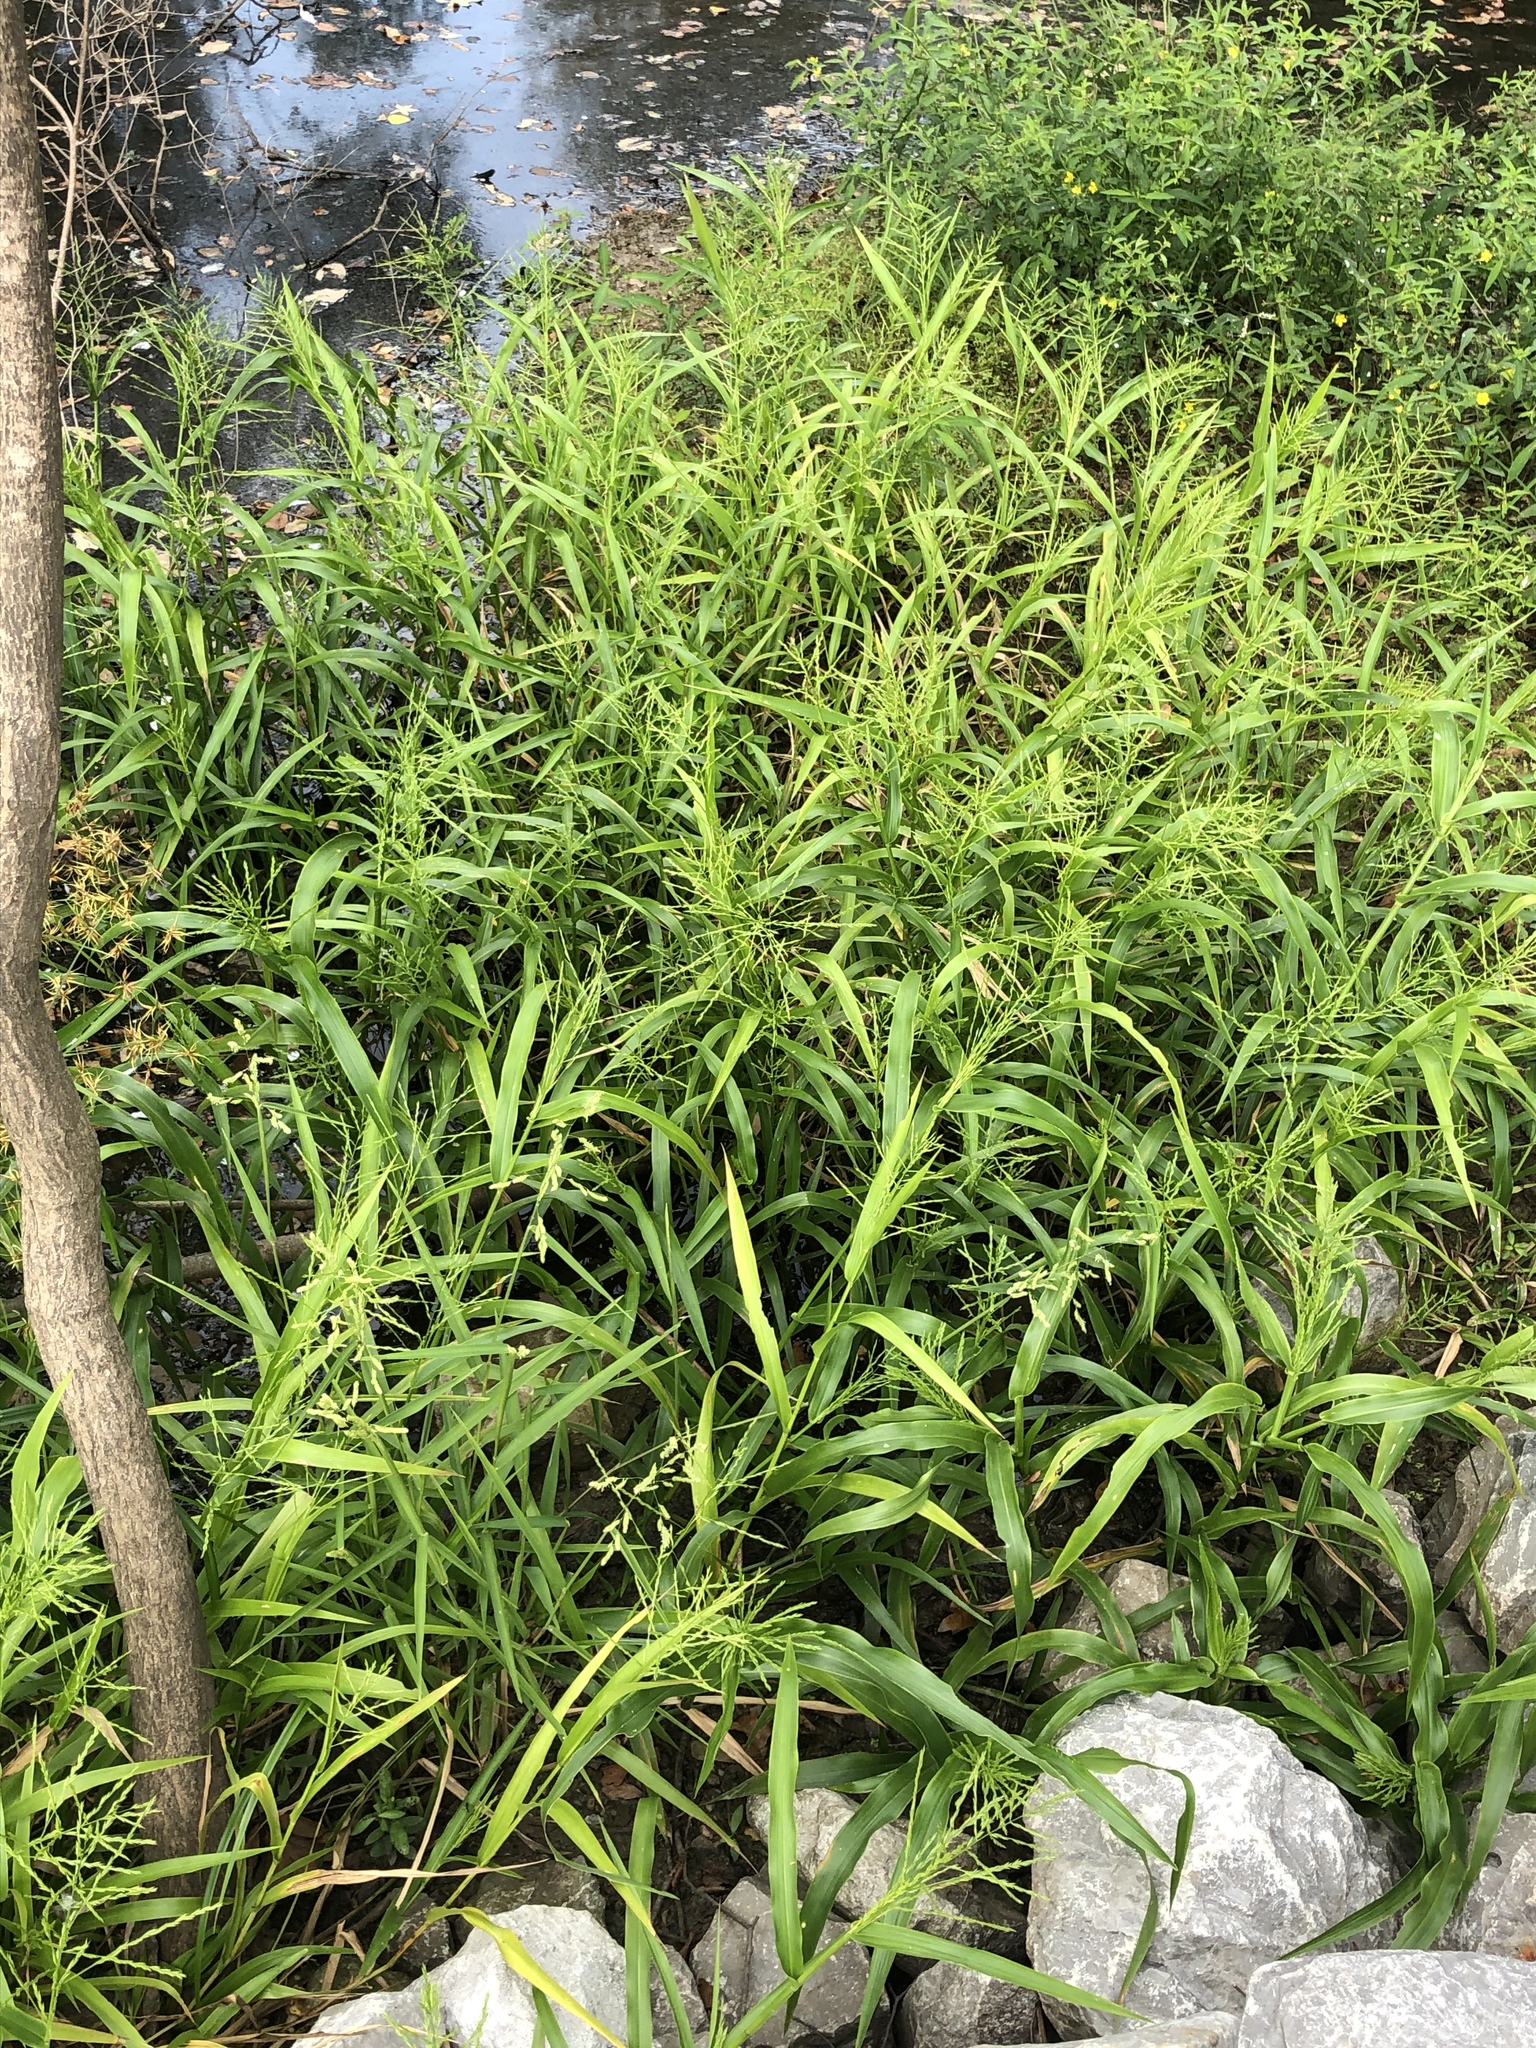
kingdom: Plantae
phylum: Tracheophyta
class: Liliopsida
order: Poales
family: Poaceae
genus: Panicum
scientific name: Panicum gymnocarpon
